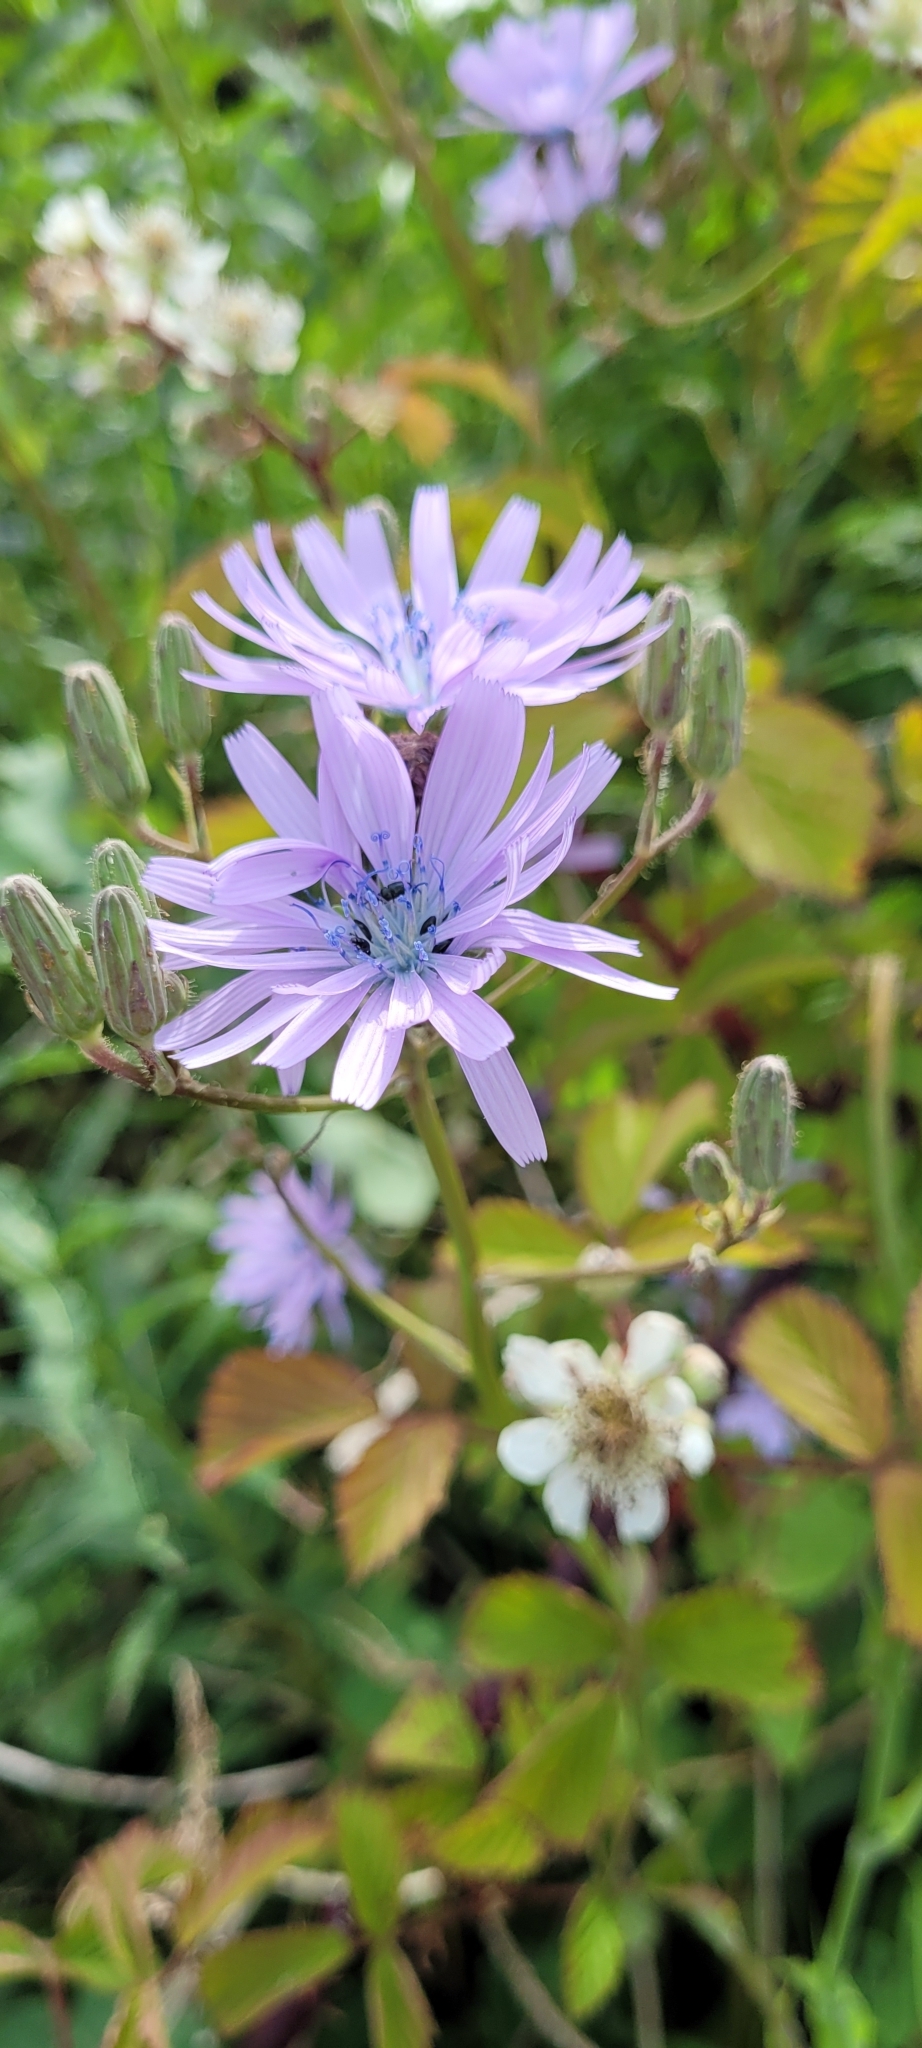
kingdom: Plantae
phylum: Tracheophyta
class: Magnoliopsida
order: Asterales
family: Asteraceae
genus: Lactuca
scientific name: Lactuca macrophylla
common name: Common blue-sow-thistle
